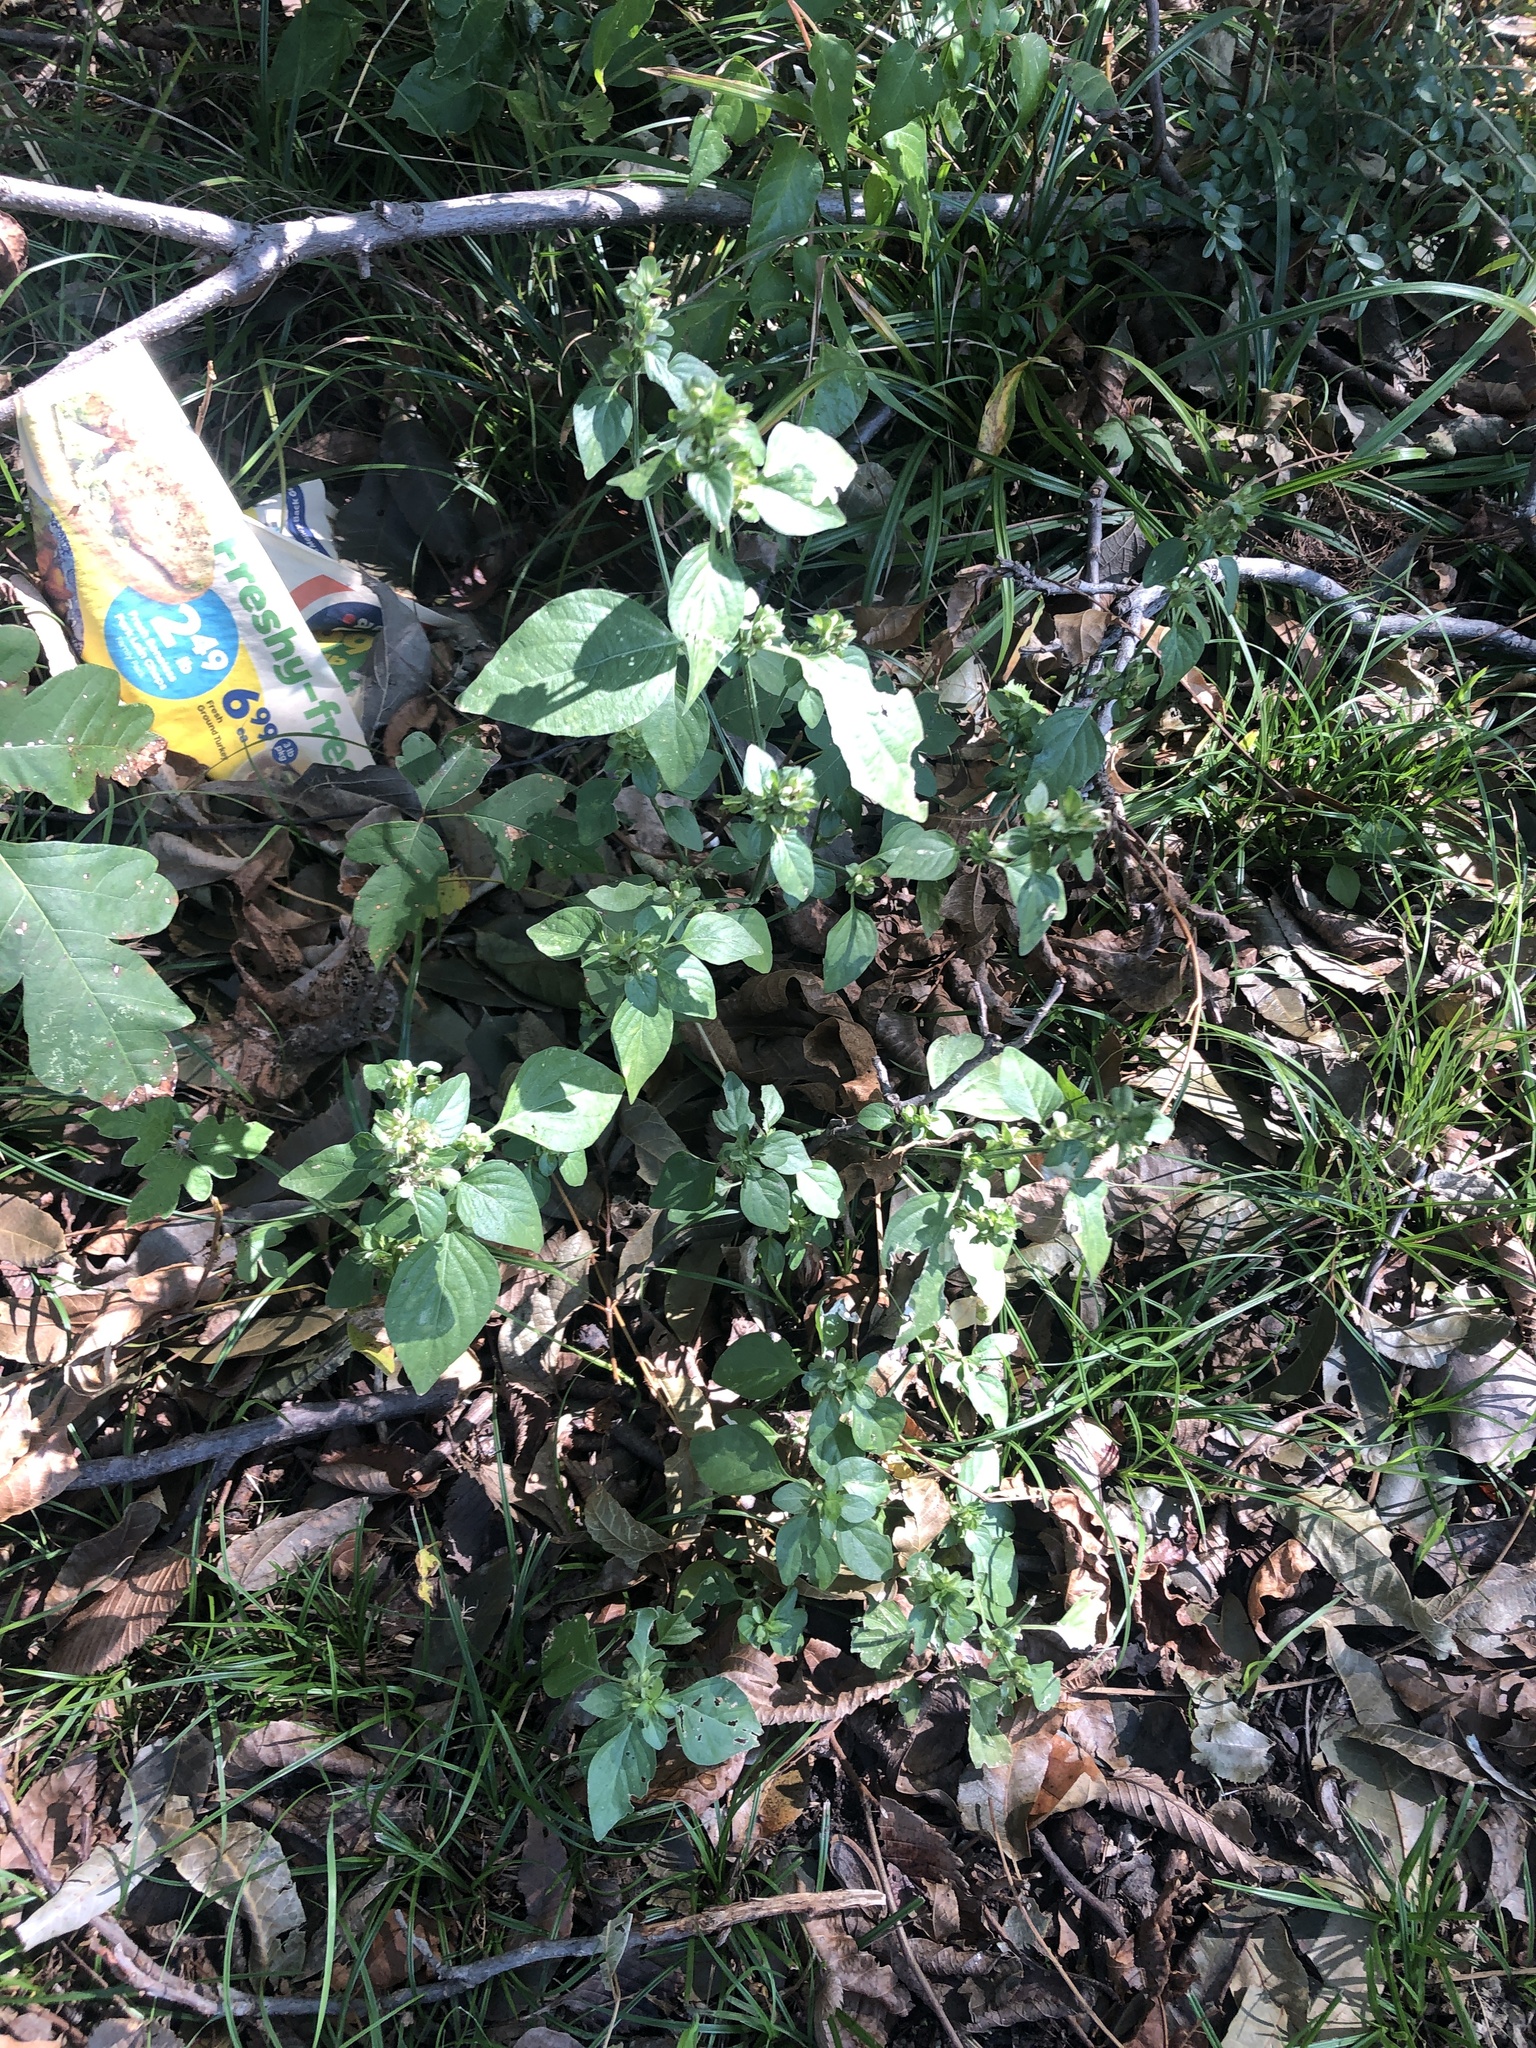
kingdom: Plantae
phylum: Tracheophyta
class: Magnoliopsida
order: Lamiales
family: Acanthaceae
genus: Dicliptera
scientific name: Dicliptera brachiata
